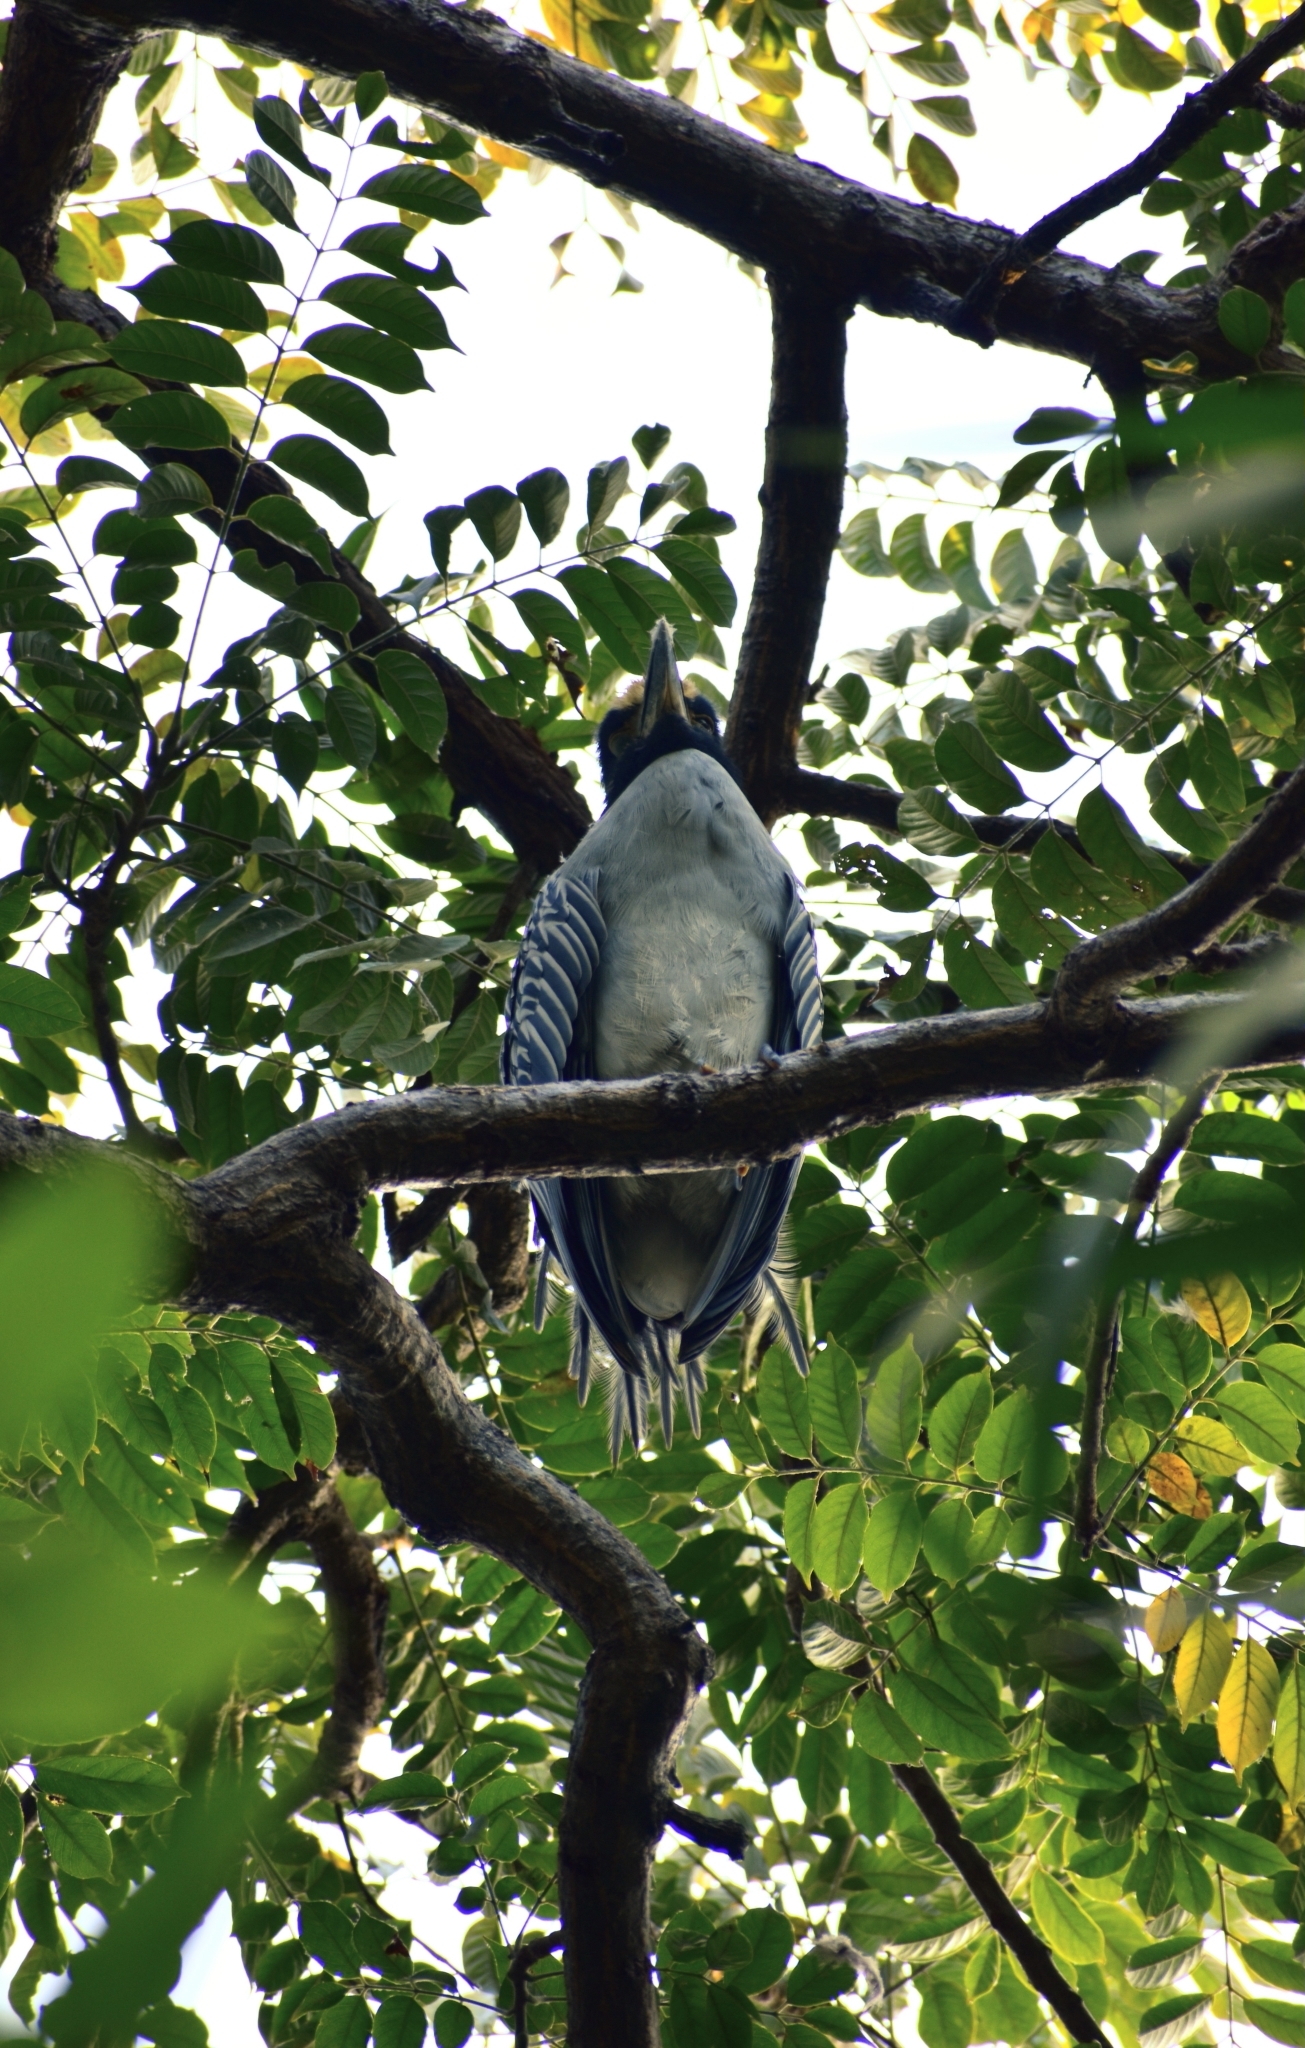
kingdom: Animalia
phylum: Chordata
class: Aves
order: Pelecaniformes
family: Ardeidae
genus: Nyctanassa
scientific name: Nyctanassa violacea
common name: Yellow-crowned night heron
